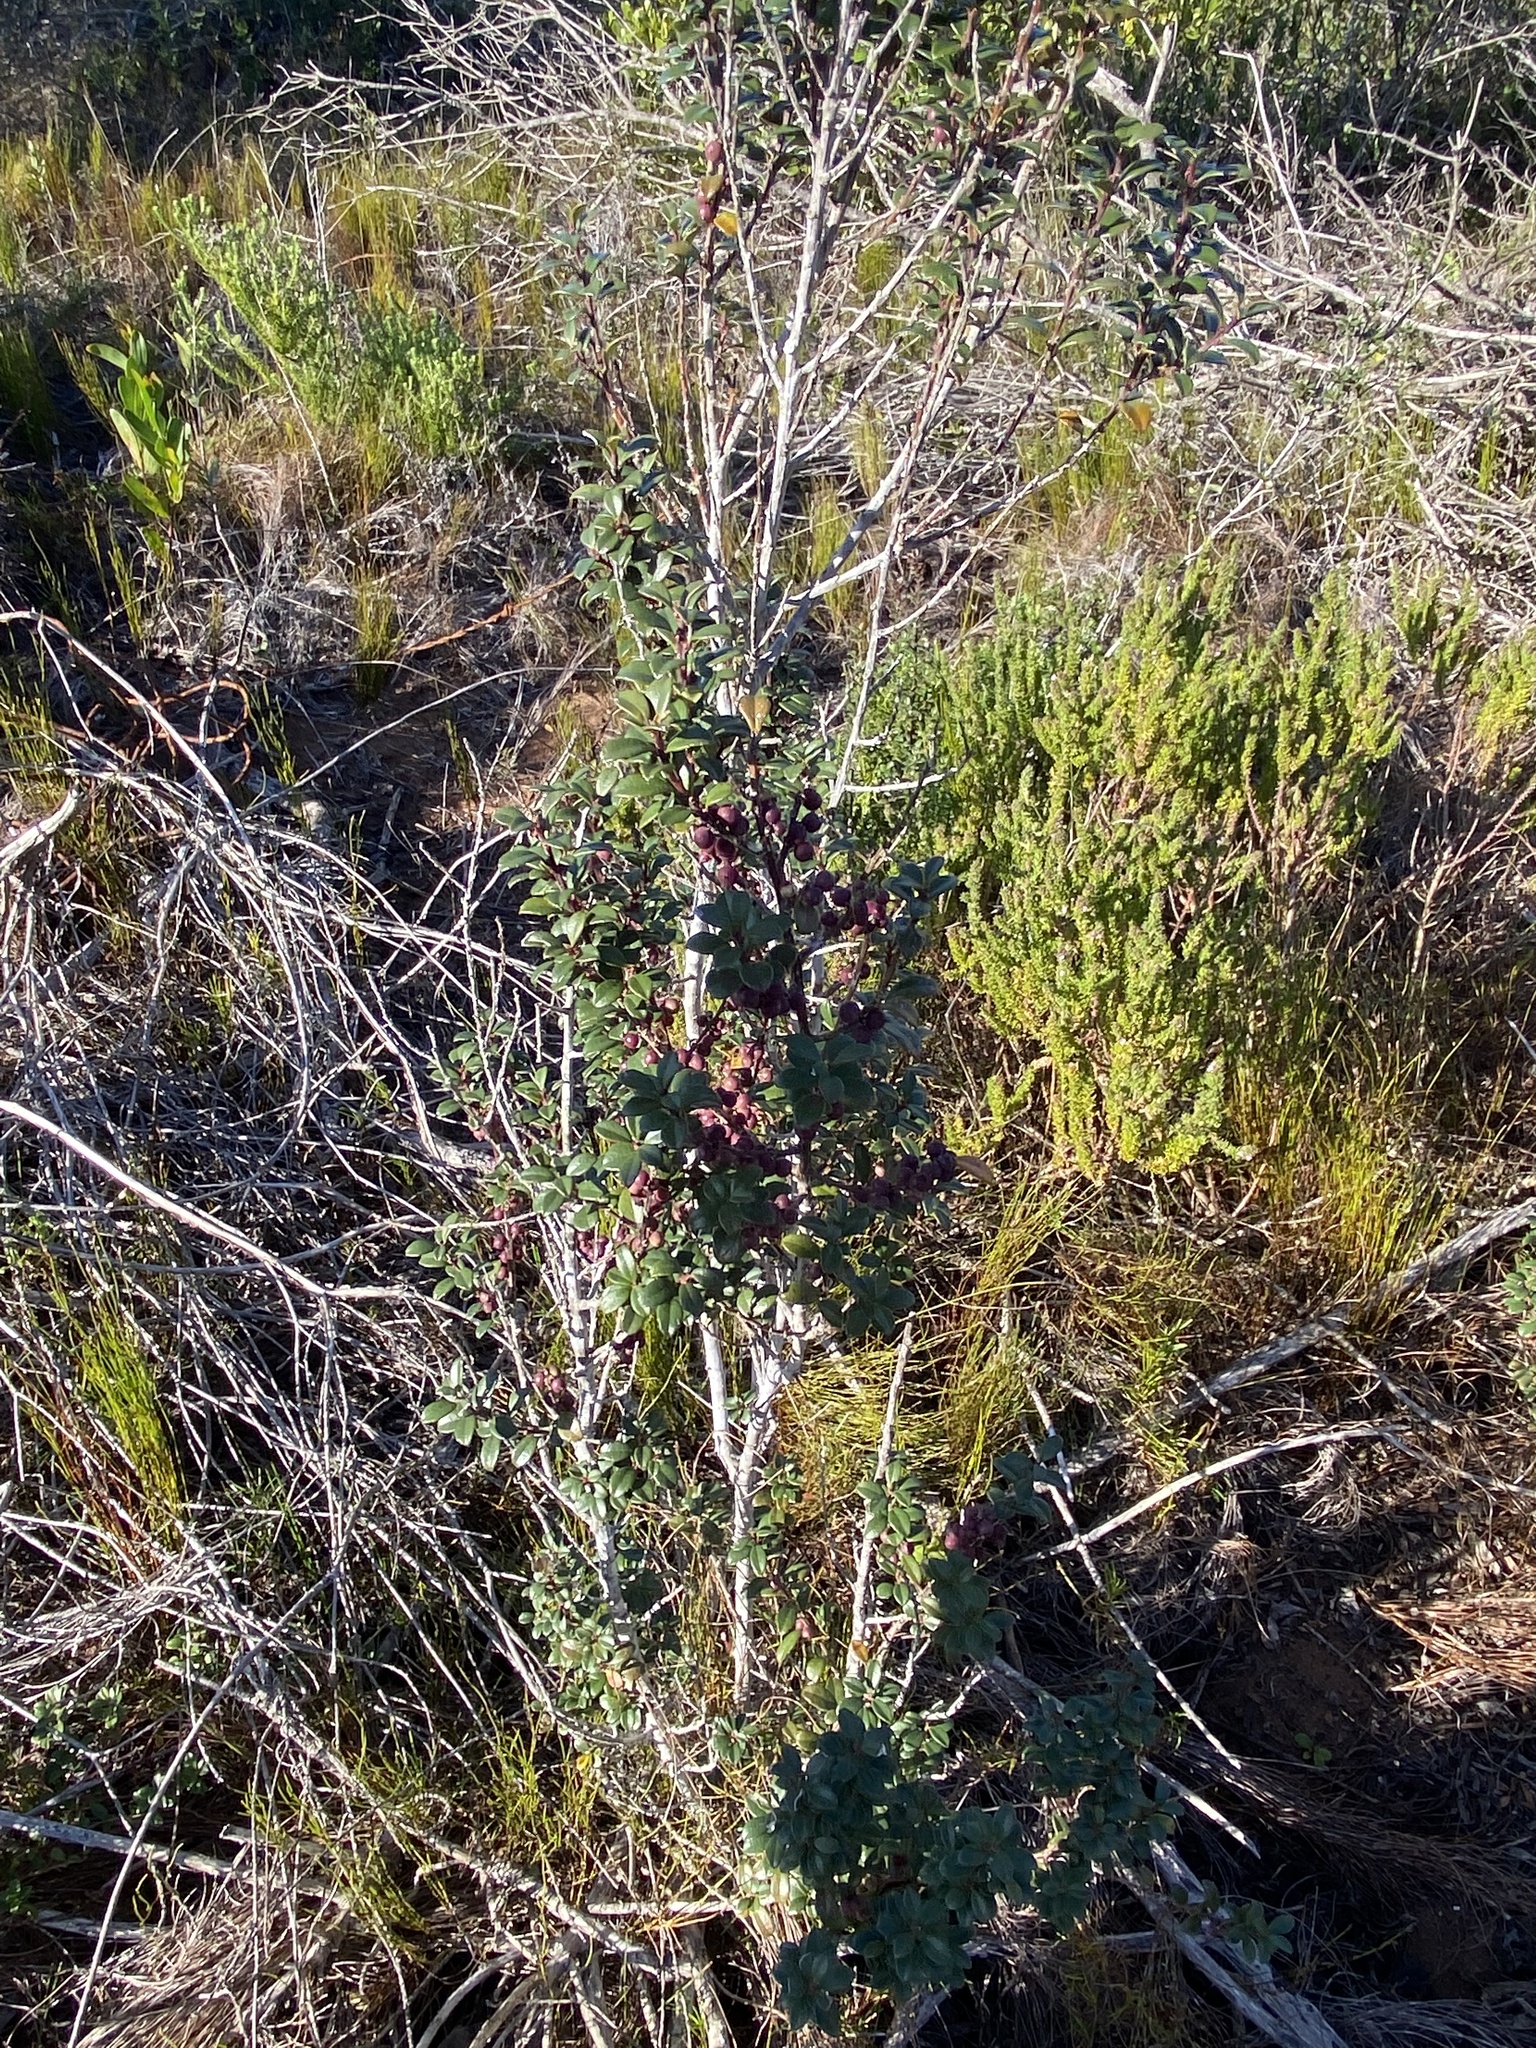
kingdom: Plantae
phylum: Tracheophyta
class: Magnoliopsida
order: Ericales
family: Primulaceae
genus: Myrsine
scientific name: Myrsine africana
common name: African-boxwood
